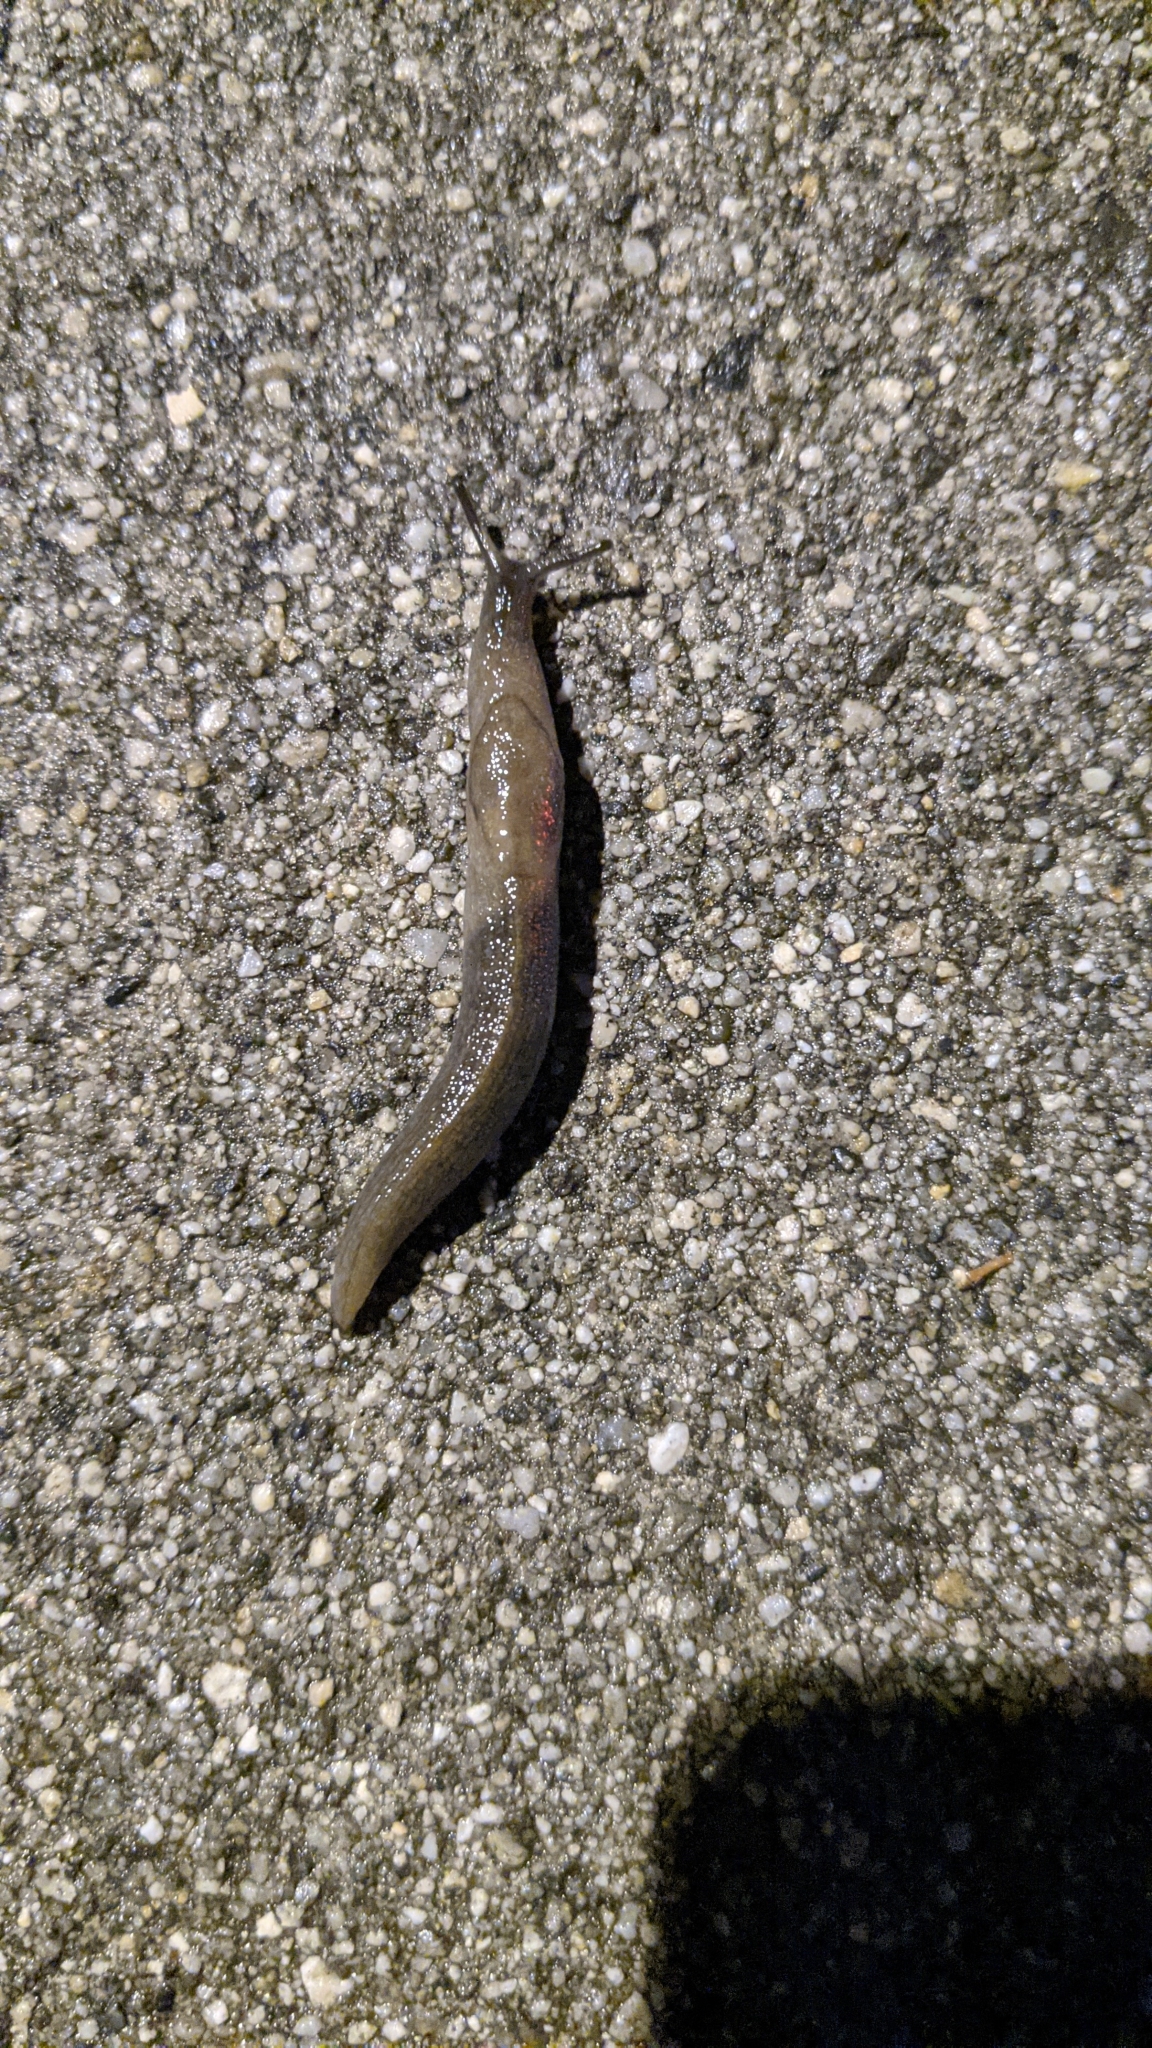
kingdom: Animalia
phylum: Mollusca
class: Gastropoda
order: Stylommatophora
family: Milacidae
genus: Milax
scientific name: Milax gagates
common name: Greenhouse slug
